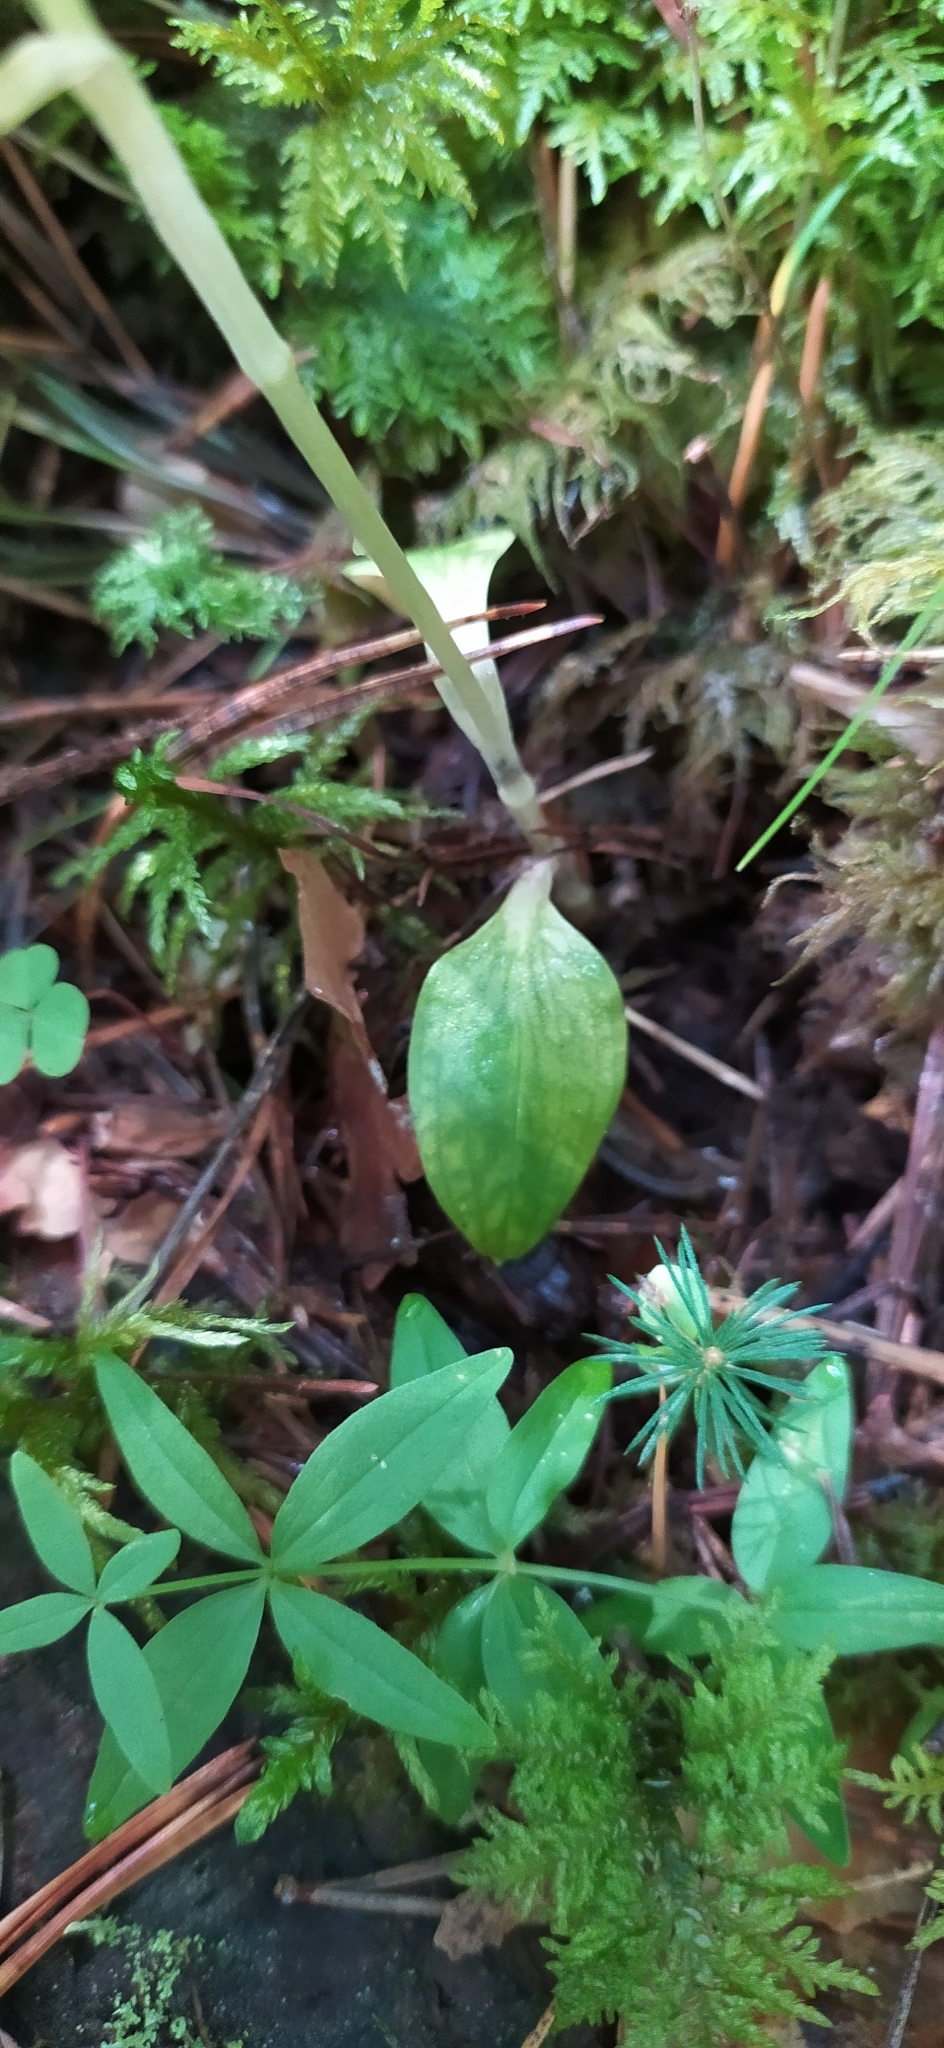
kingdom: Plantae
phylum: Tracheophyta
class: Liliopsida
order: Asparagales
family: Orchidaceae
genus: Goodyera
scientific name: Goodyera repens
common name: Creeping lady's-tresses
